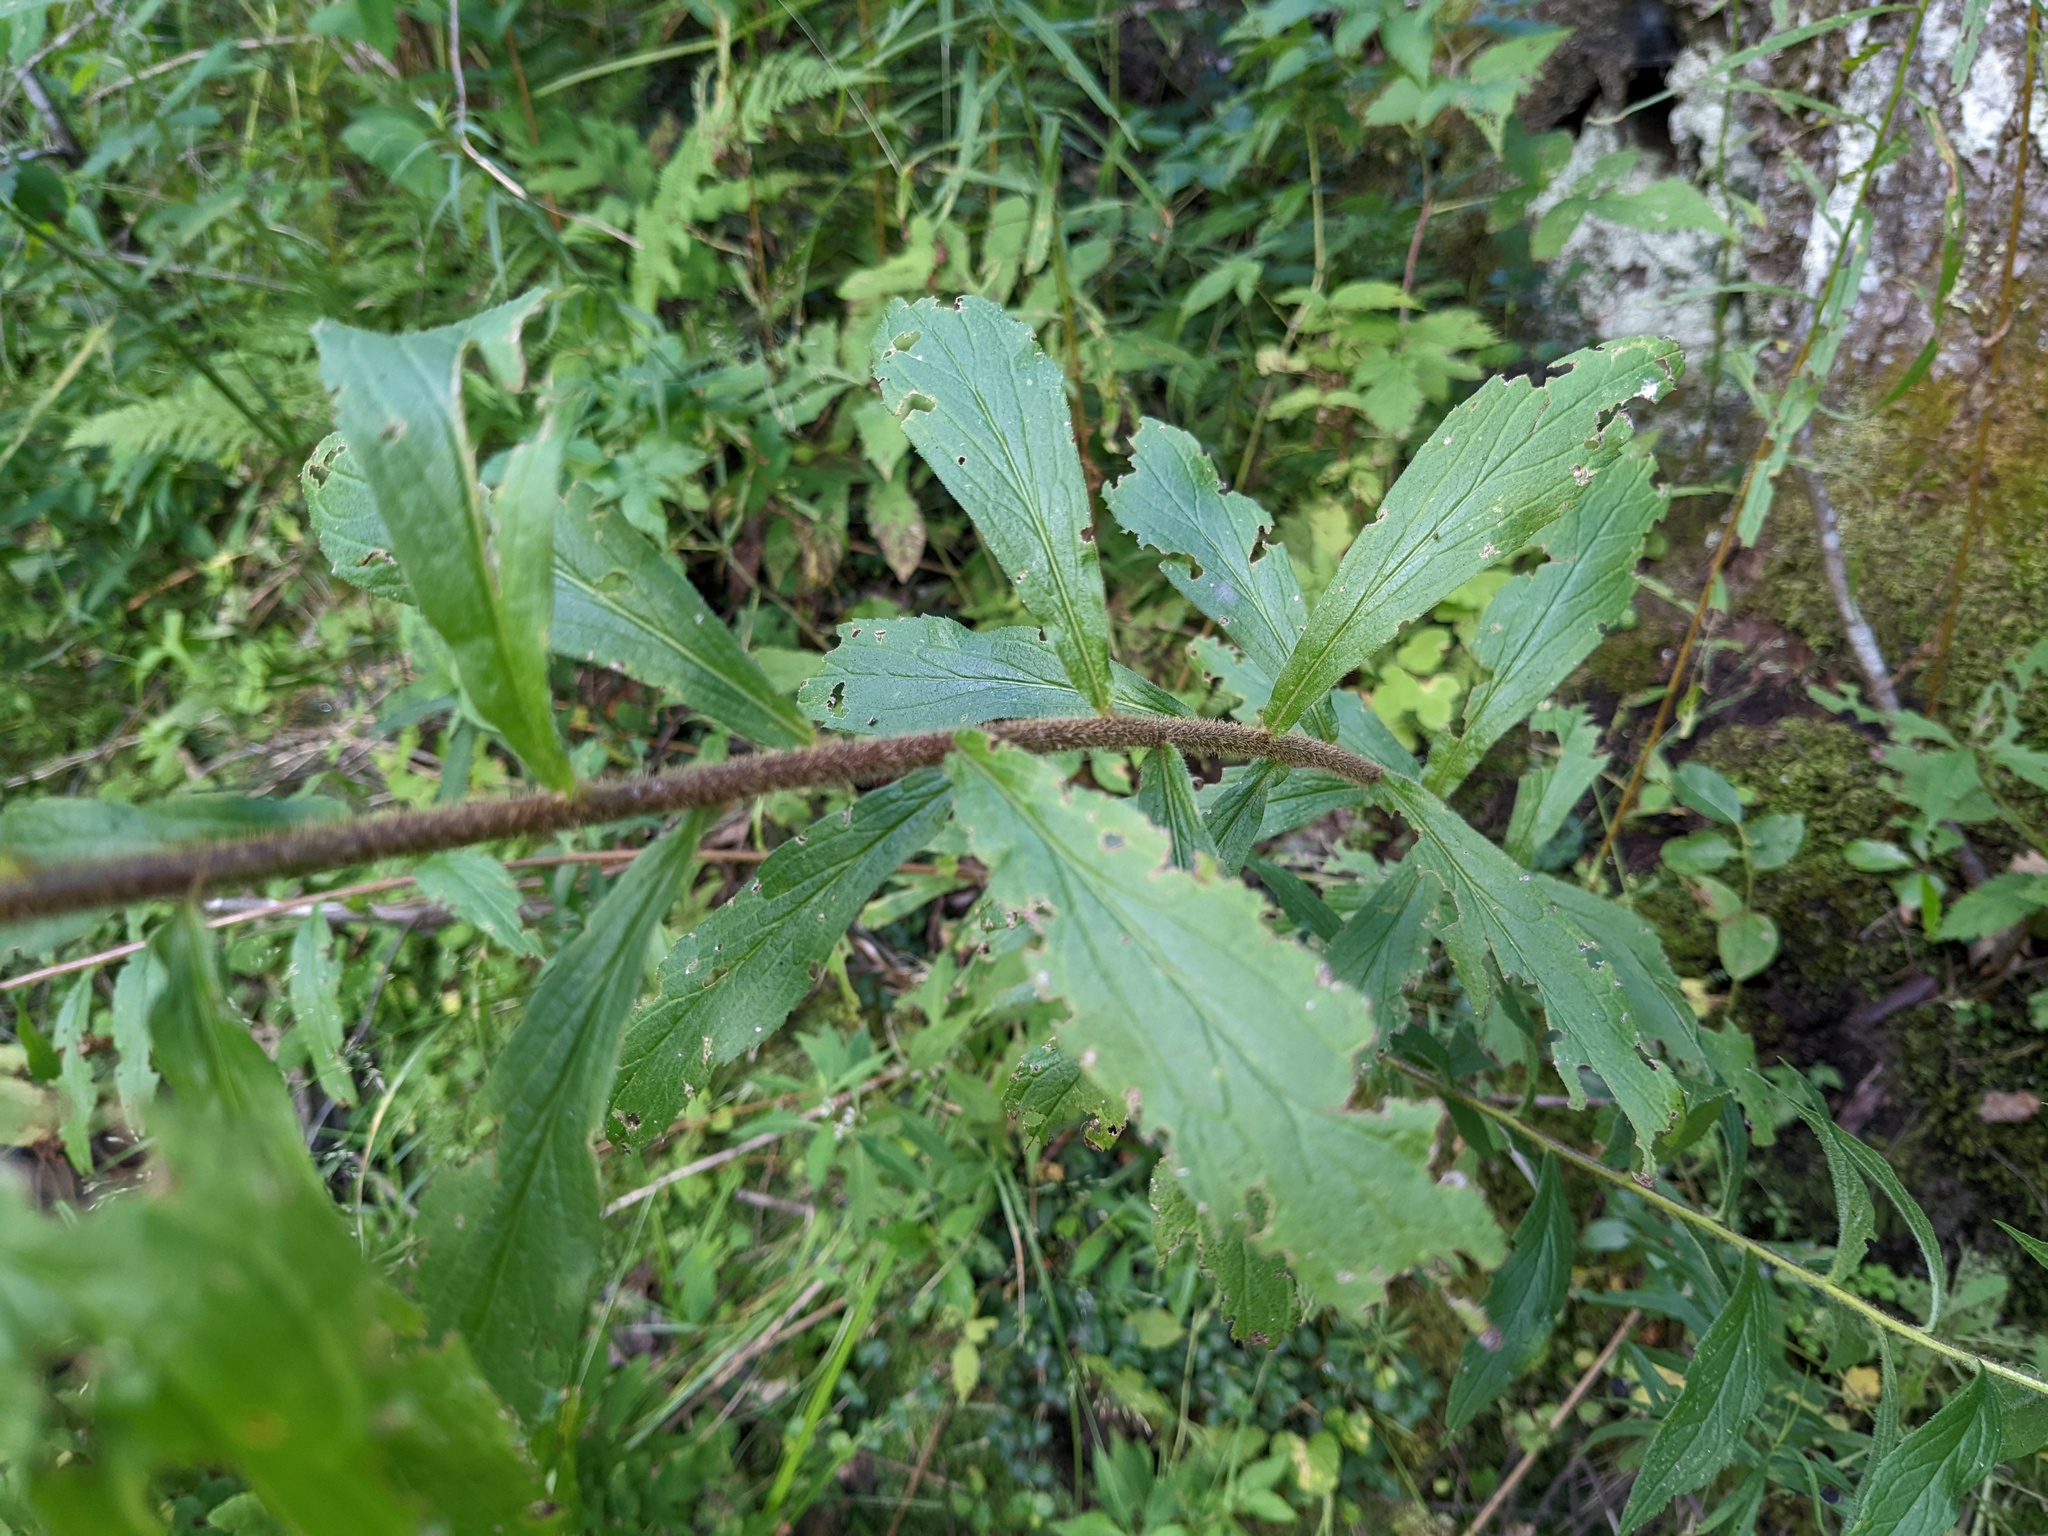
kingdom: Plantae
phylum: Tracheophyta
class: Magnoliopsida
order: Asterales
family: Asteraceae
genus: Solidago
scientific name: Solidago rugosa
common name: Rough-stemmed goldenrod
